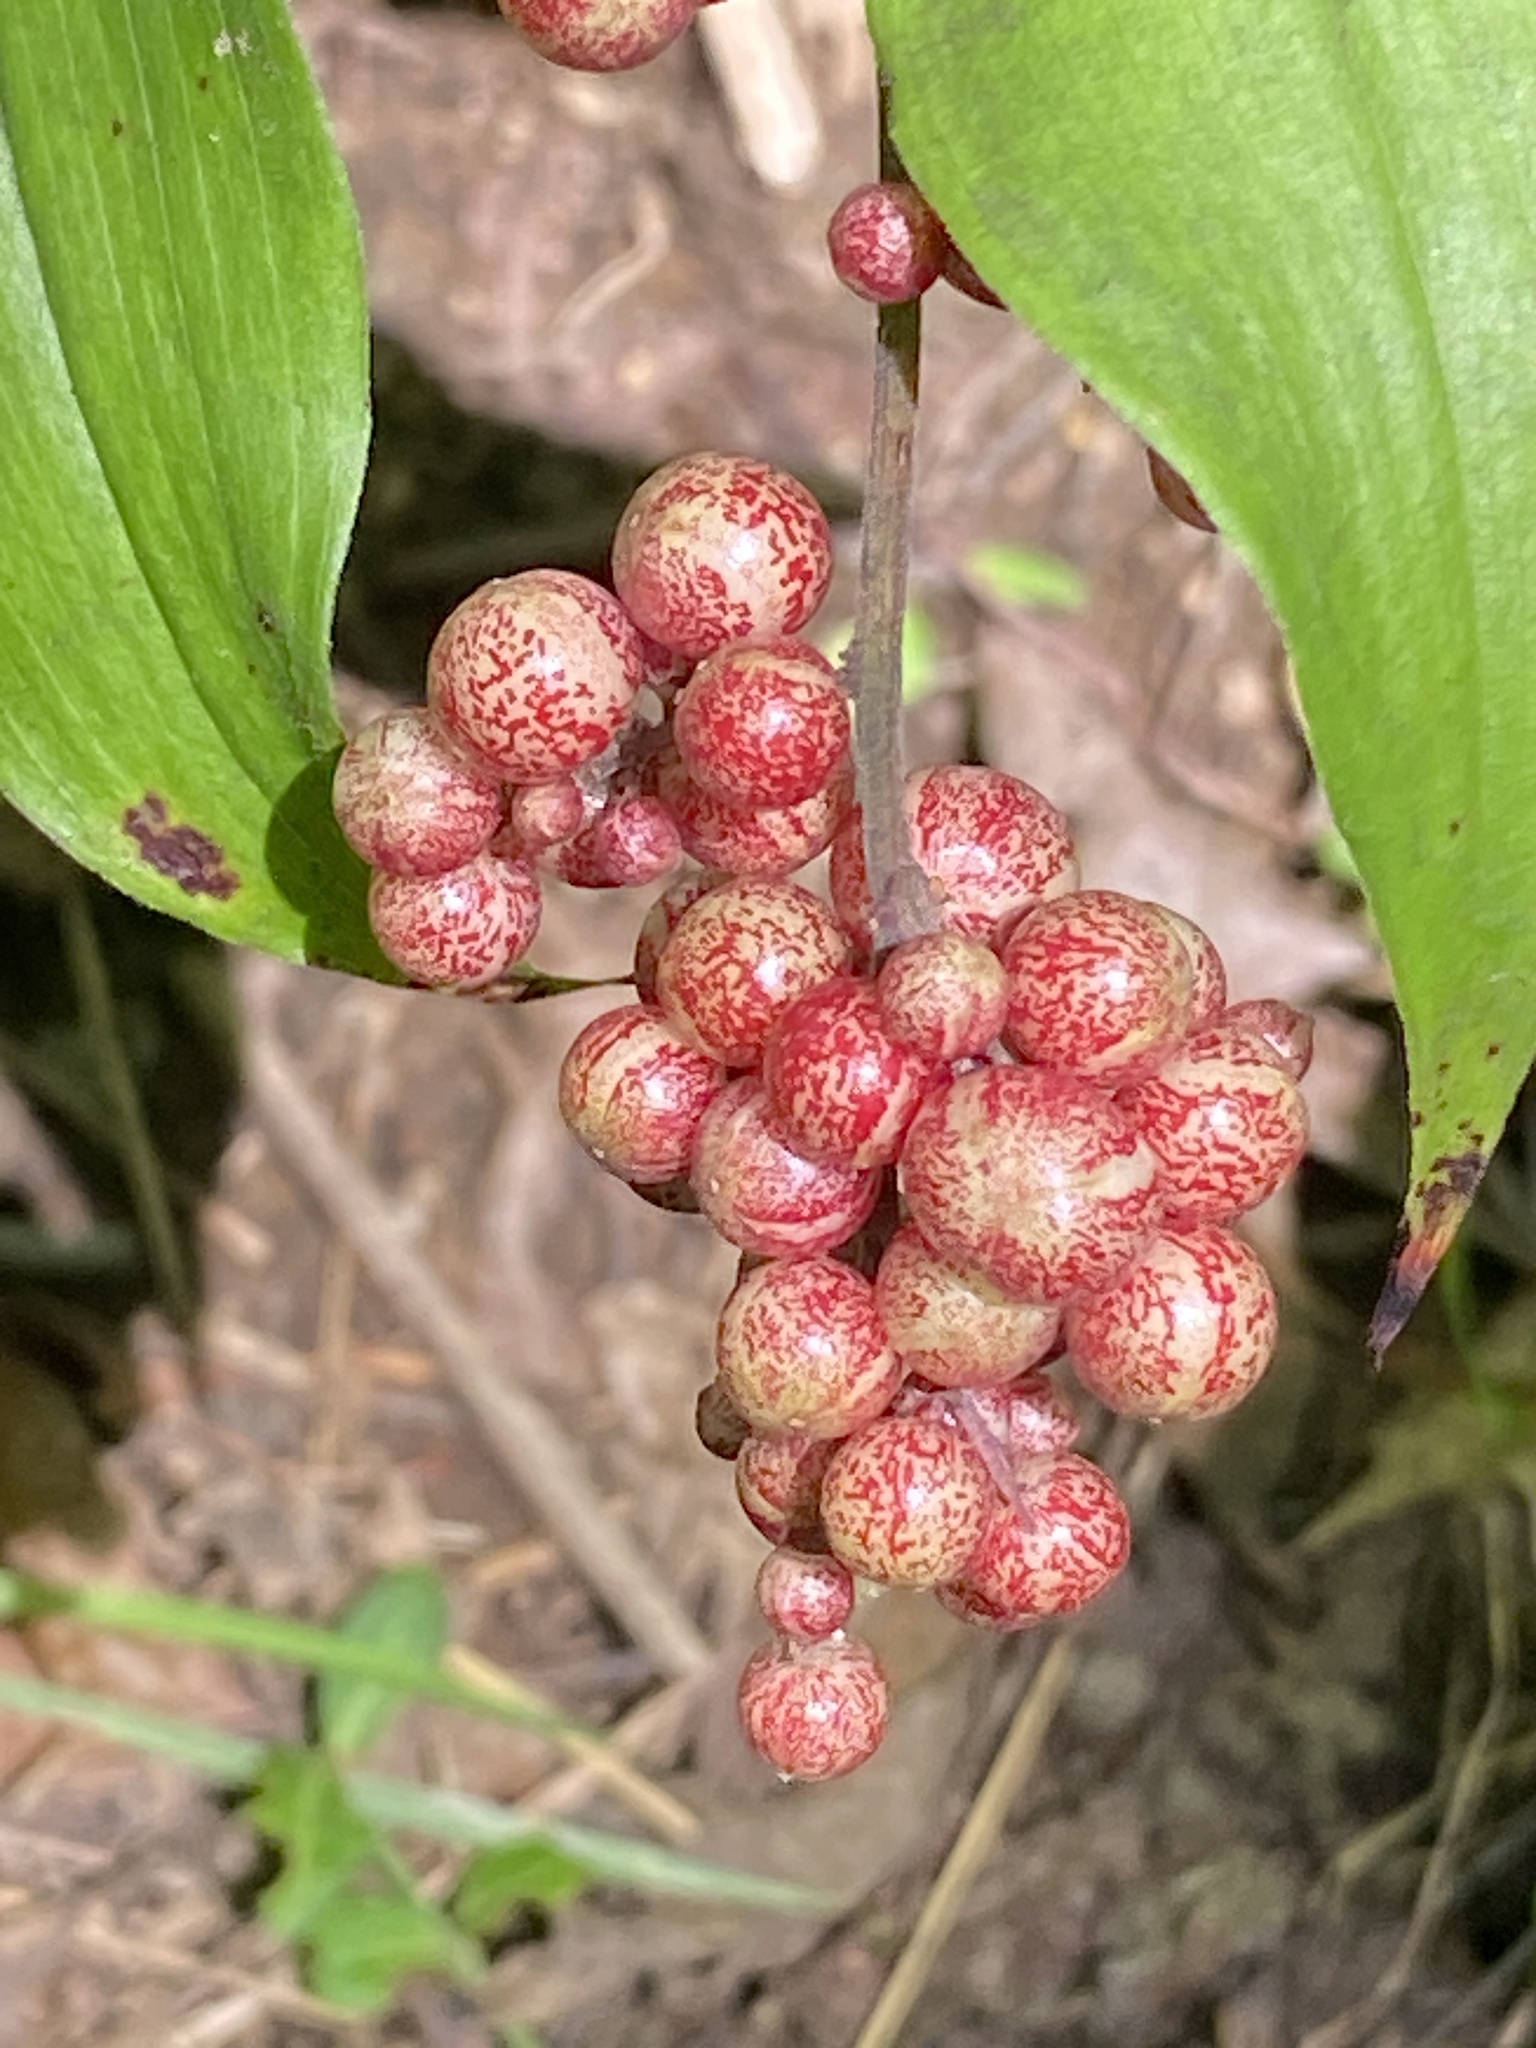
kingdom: Plantae
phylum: Tracheophyta
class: Liliopsida
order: Asparagales
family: Asparagaceae
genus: Maianthemum
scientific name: Maianthemum racemosum
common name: False spikenard
